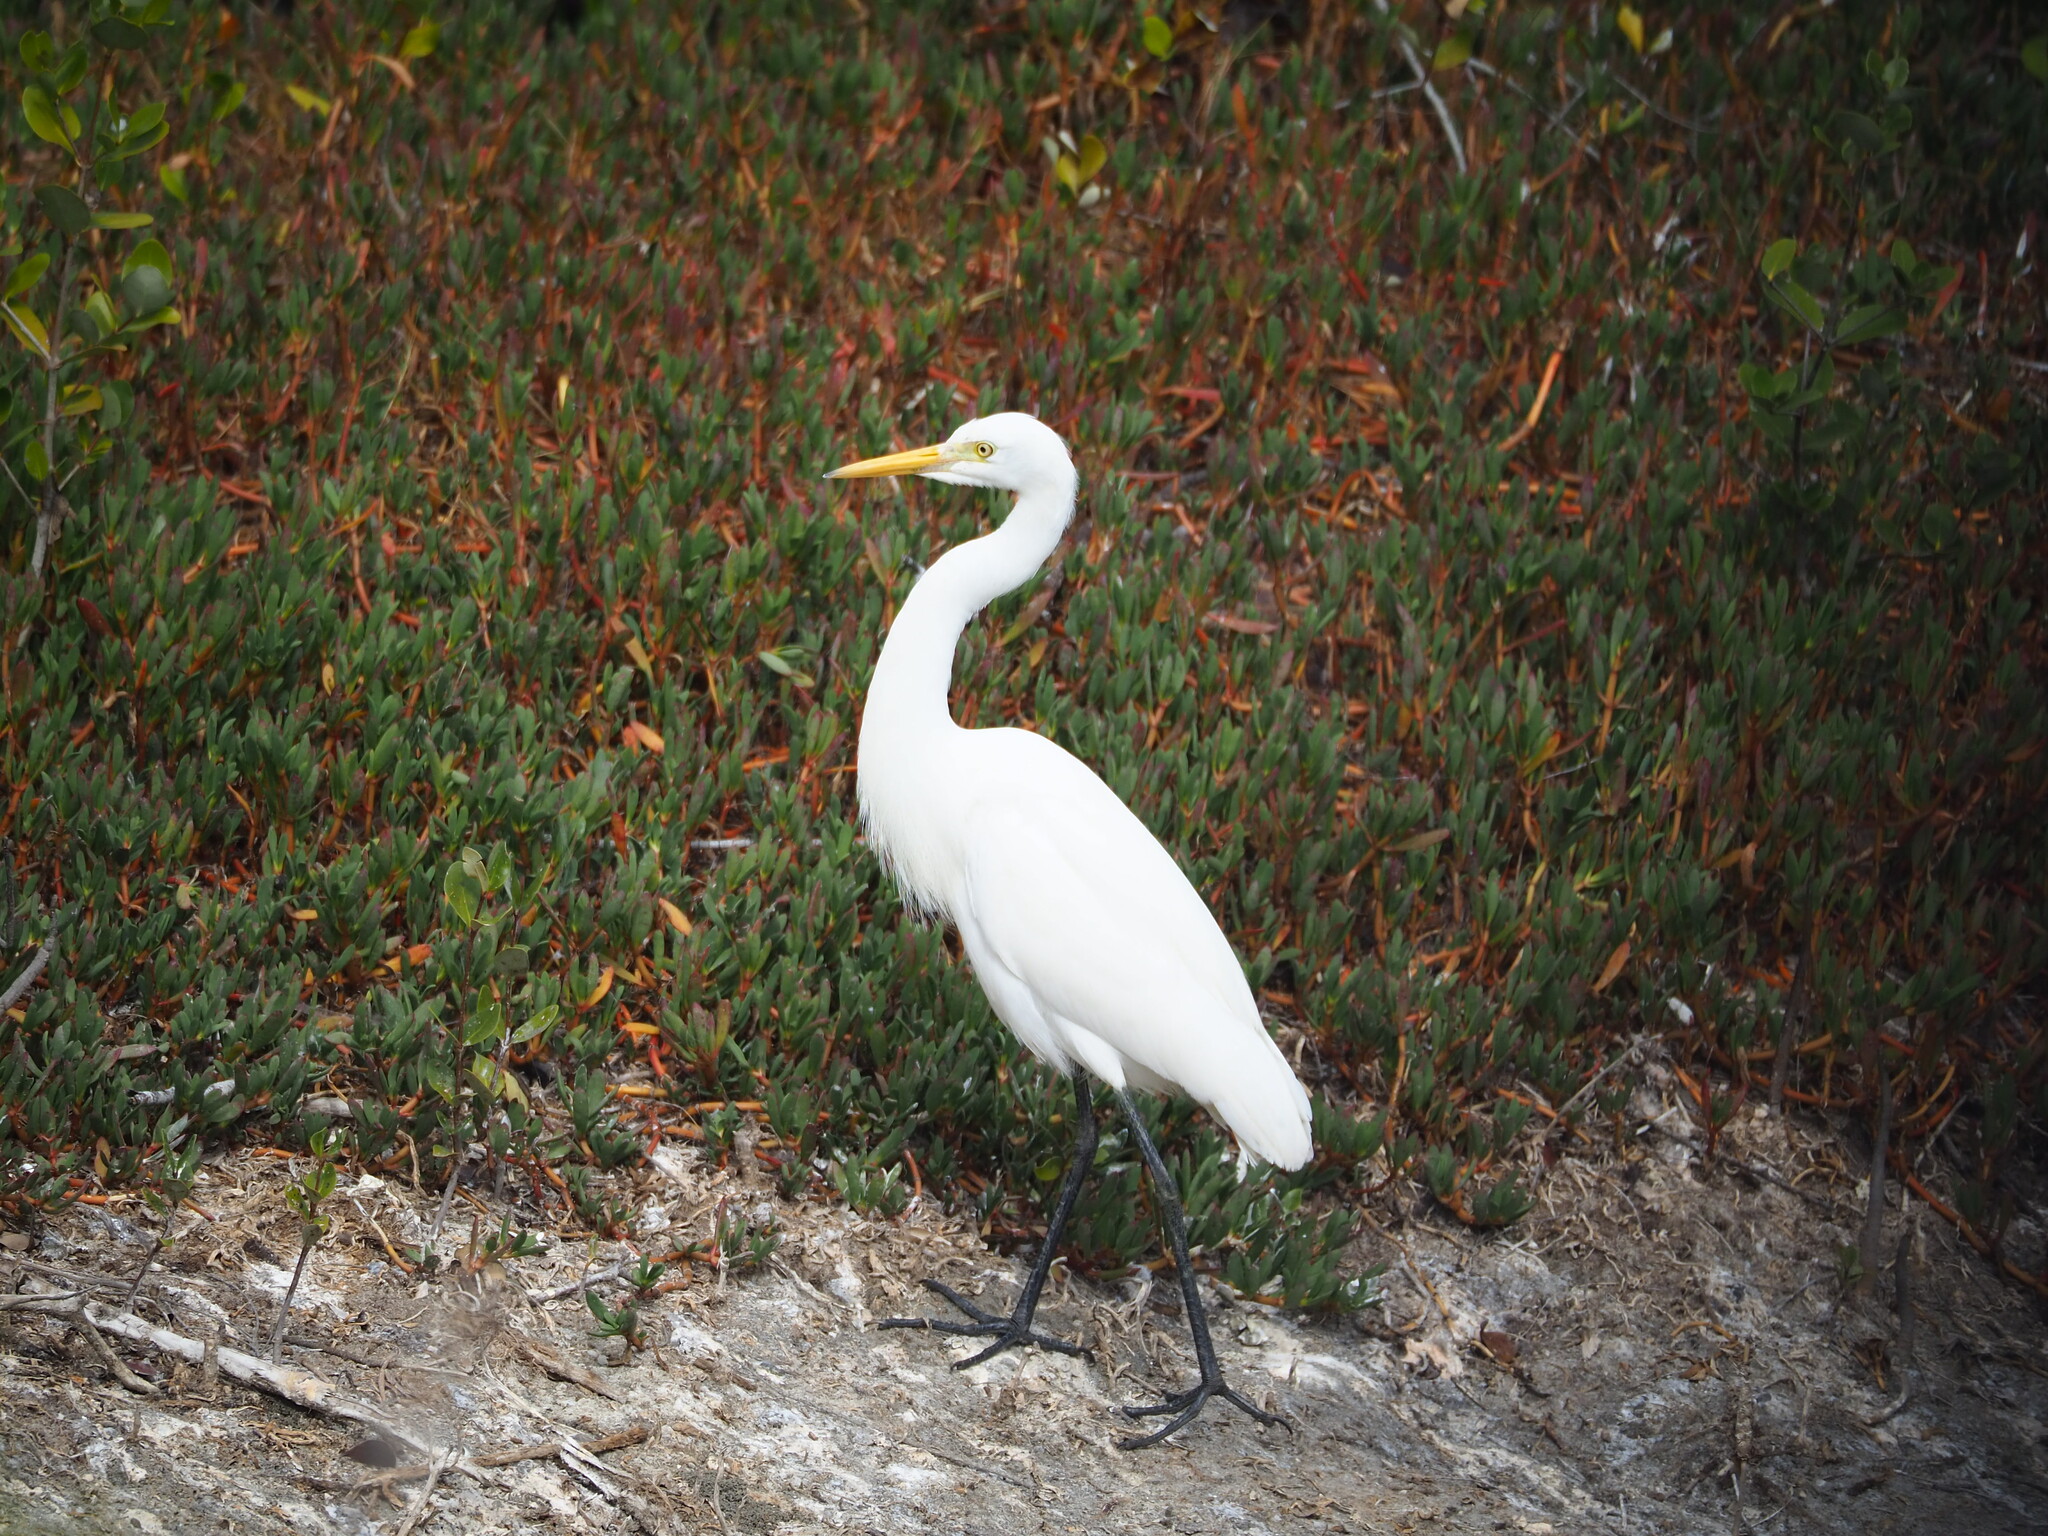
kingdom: Animalia
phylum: Chordata
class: Aves
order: Pelecaniformes
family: Ardeidae
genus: Egretta
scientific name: Egretta intermedia
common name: Intermediate egret
